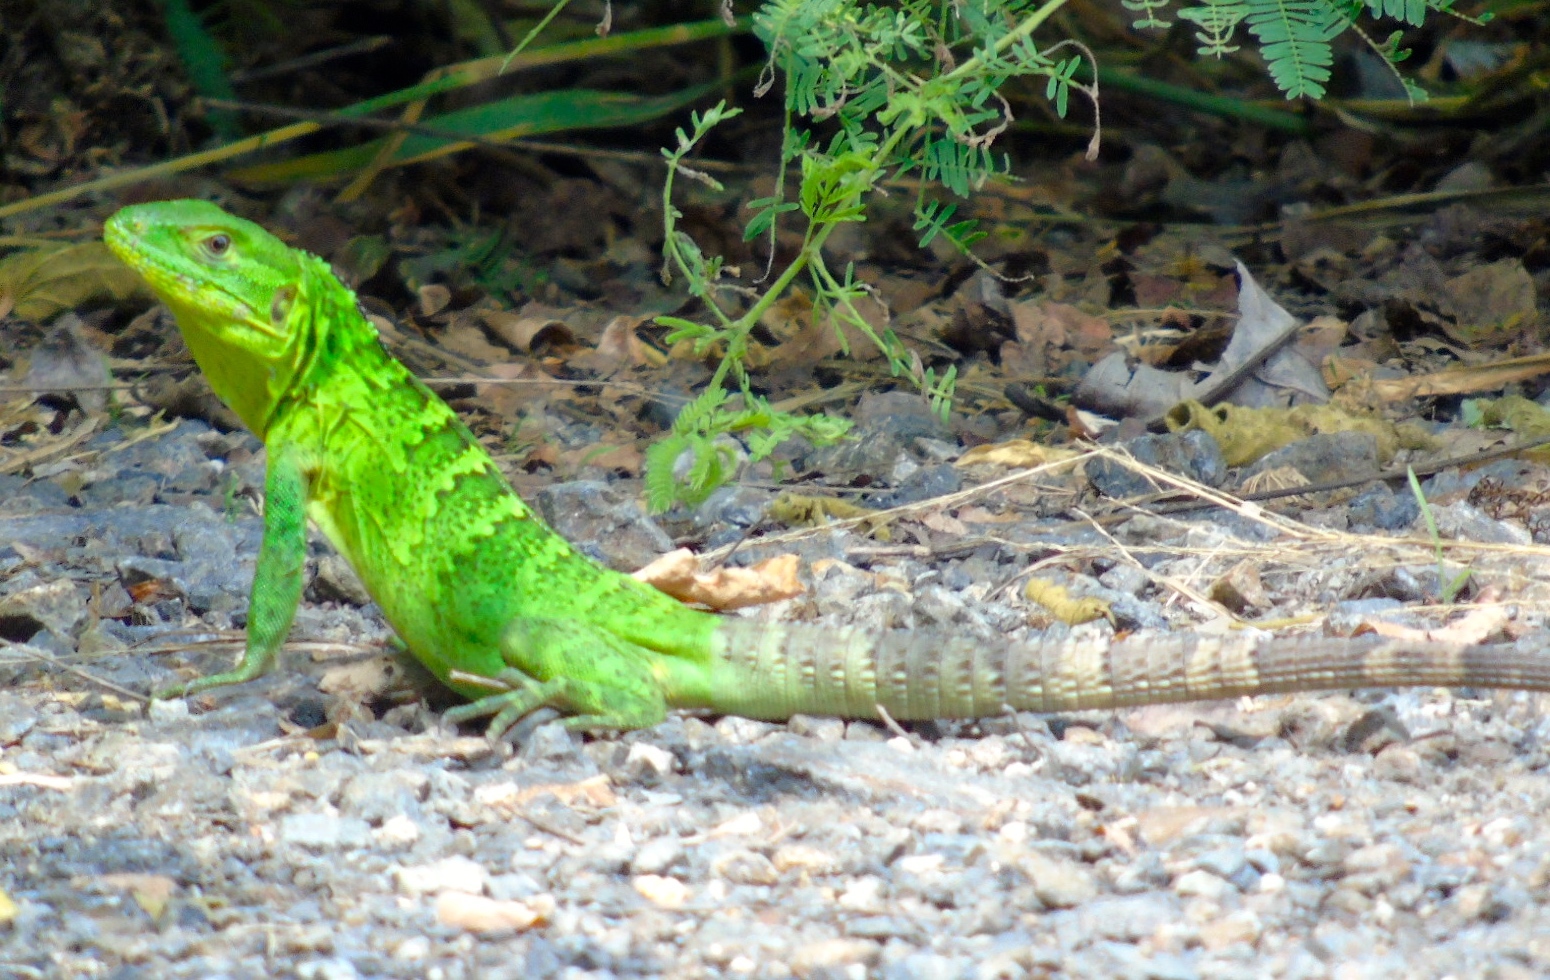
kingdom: Animalia
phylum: Chordata
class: Squamata
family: Iguanidae
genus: Ctenosaura
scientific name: Ctenosaura pectinata
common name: Guerreran spiny-tailed iguana
